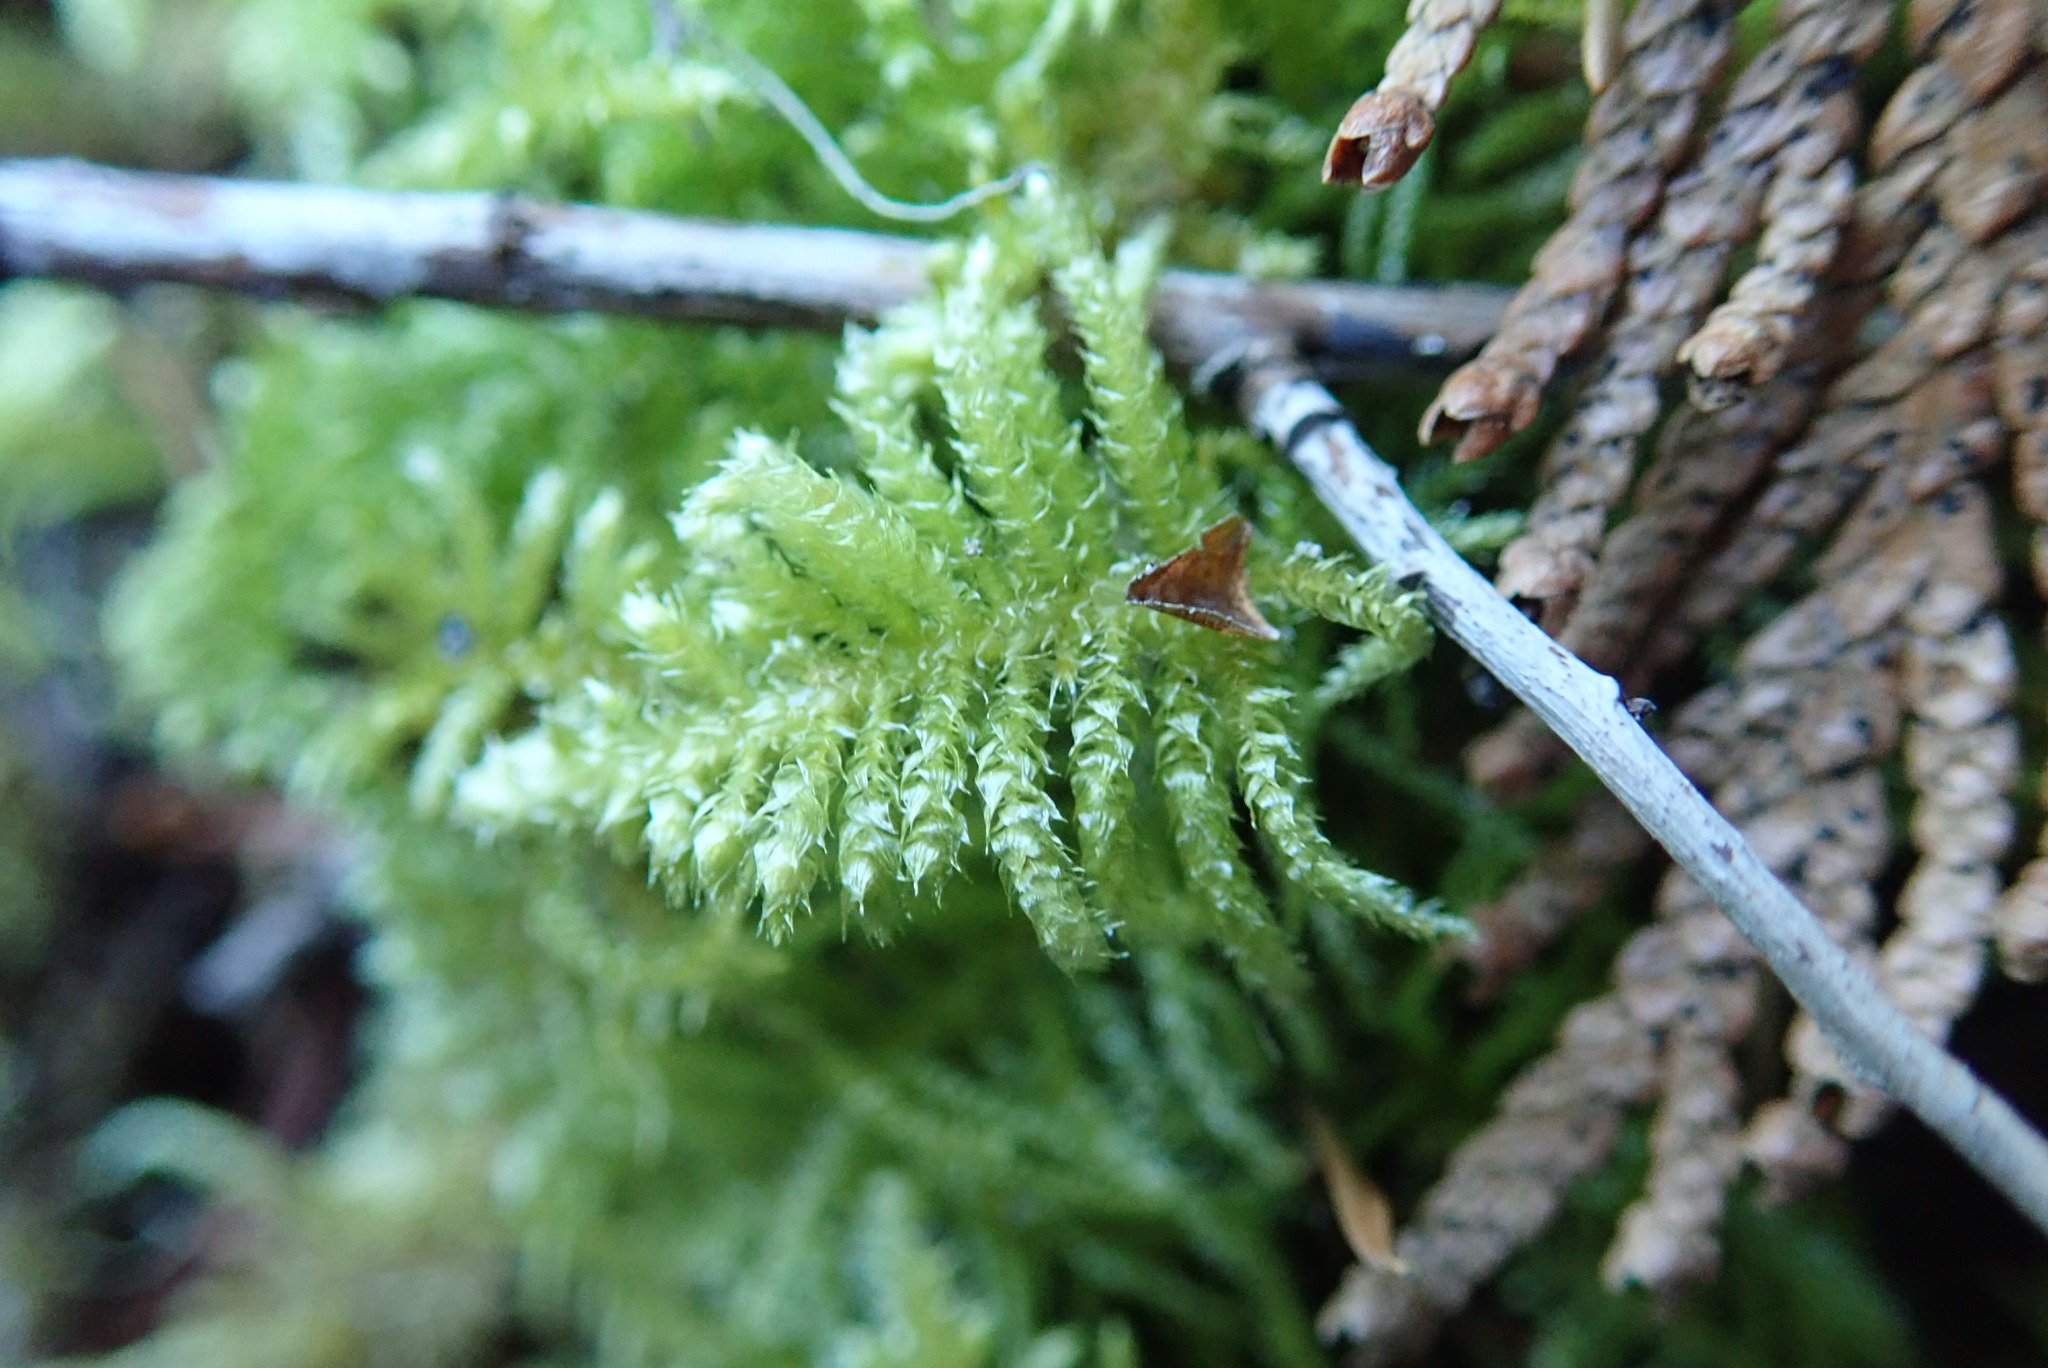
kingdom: Plantae
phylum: Bryophyta
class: Bryopsida
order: Hypnales
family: Brachytheciaceae
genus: Kindbergia
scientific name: Kindbergia oregana
